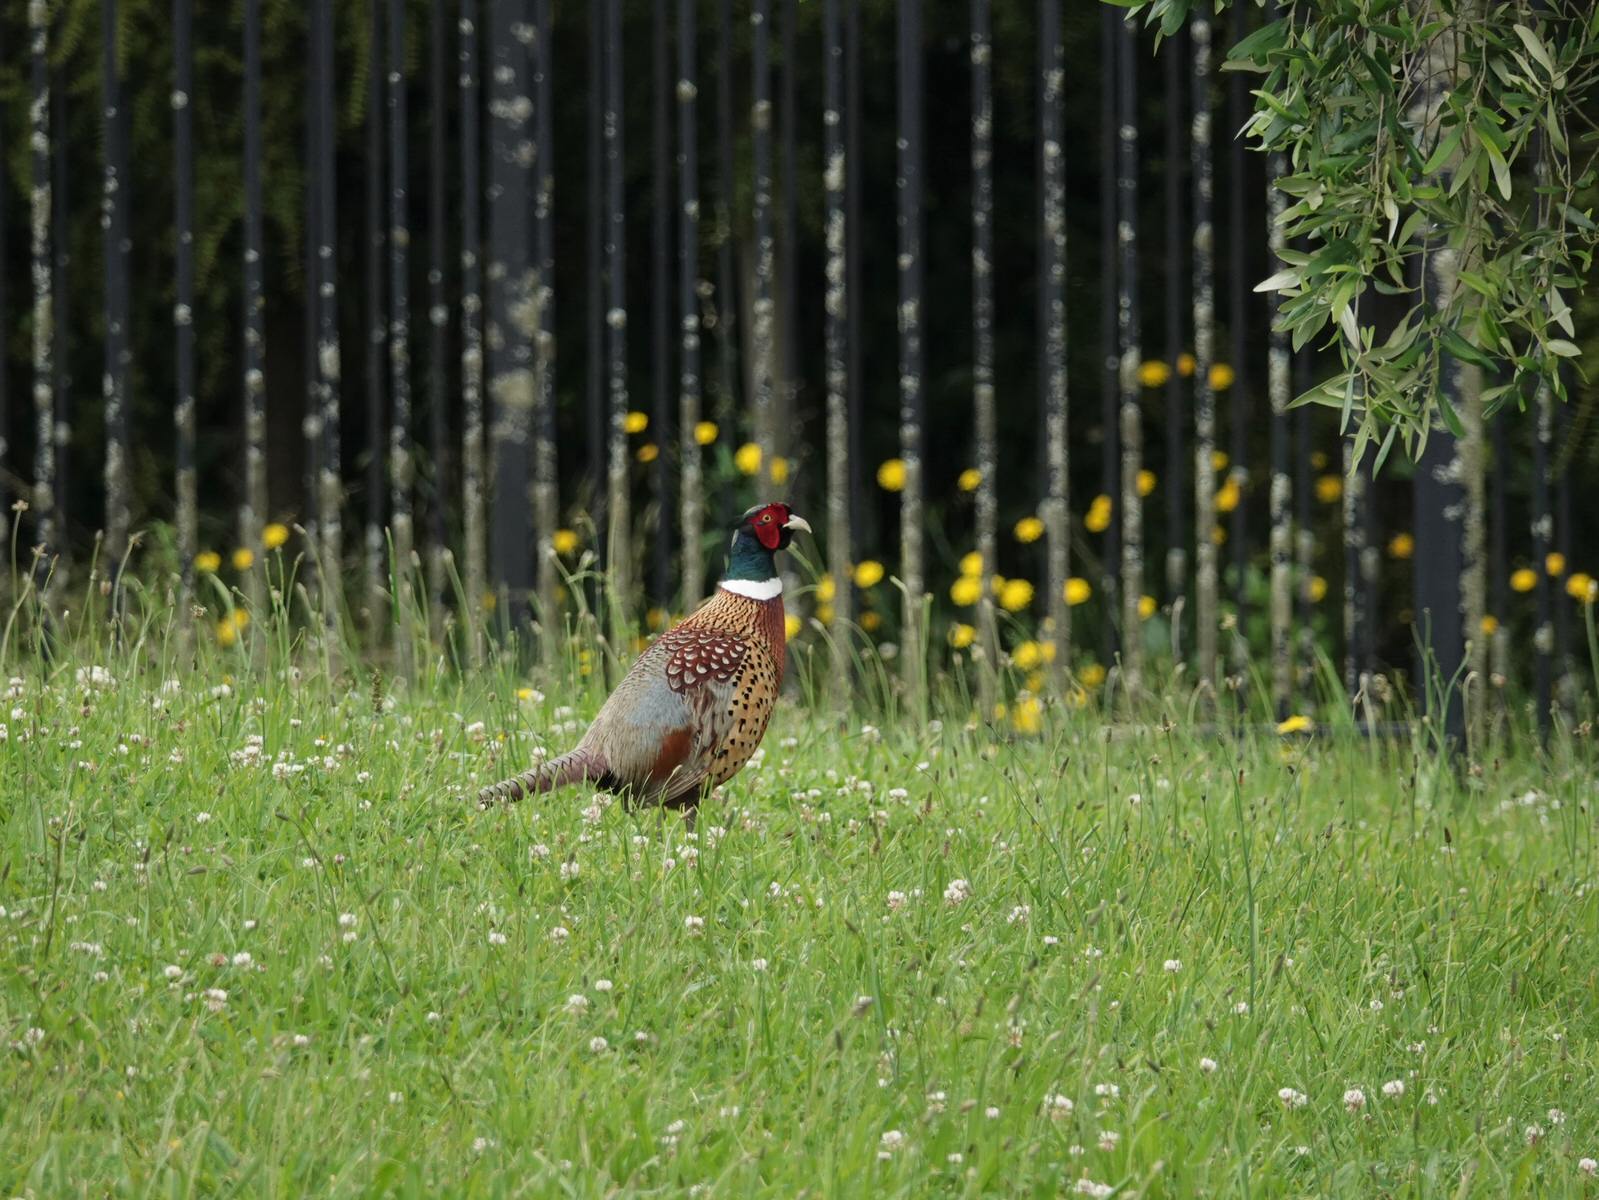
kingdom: Animalia
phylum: Chordata
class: Aves
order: Galliformes
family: Phasianidae
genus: Phasianus
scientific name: Phasianus colchicus
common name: Common pheasant
